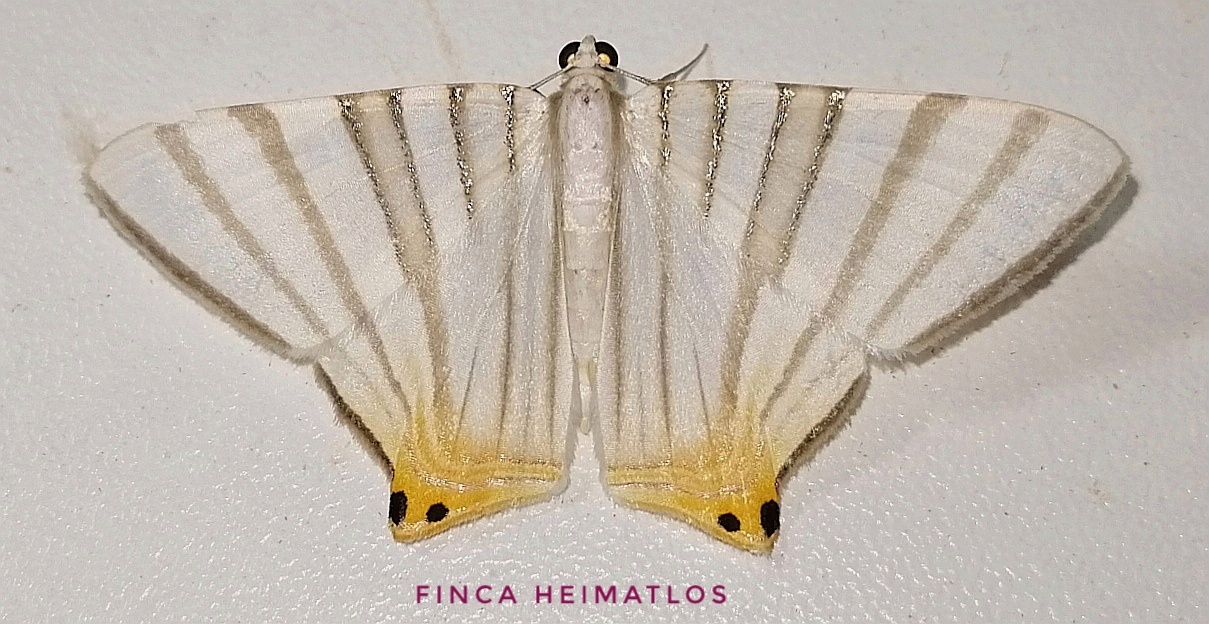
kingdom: Animalia
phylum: Arthropoda
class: Insecta
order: Lepidoptera
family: Geometridae
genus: Phrygionis
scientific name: Phrygionis platinata
